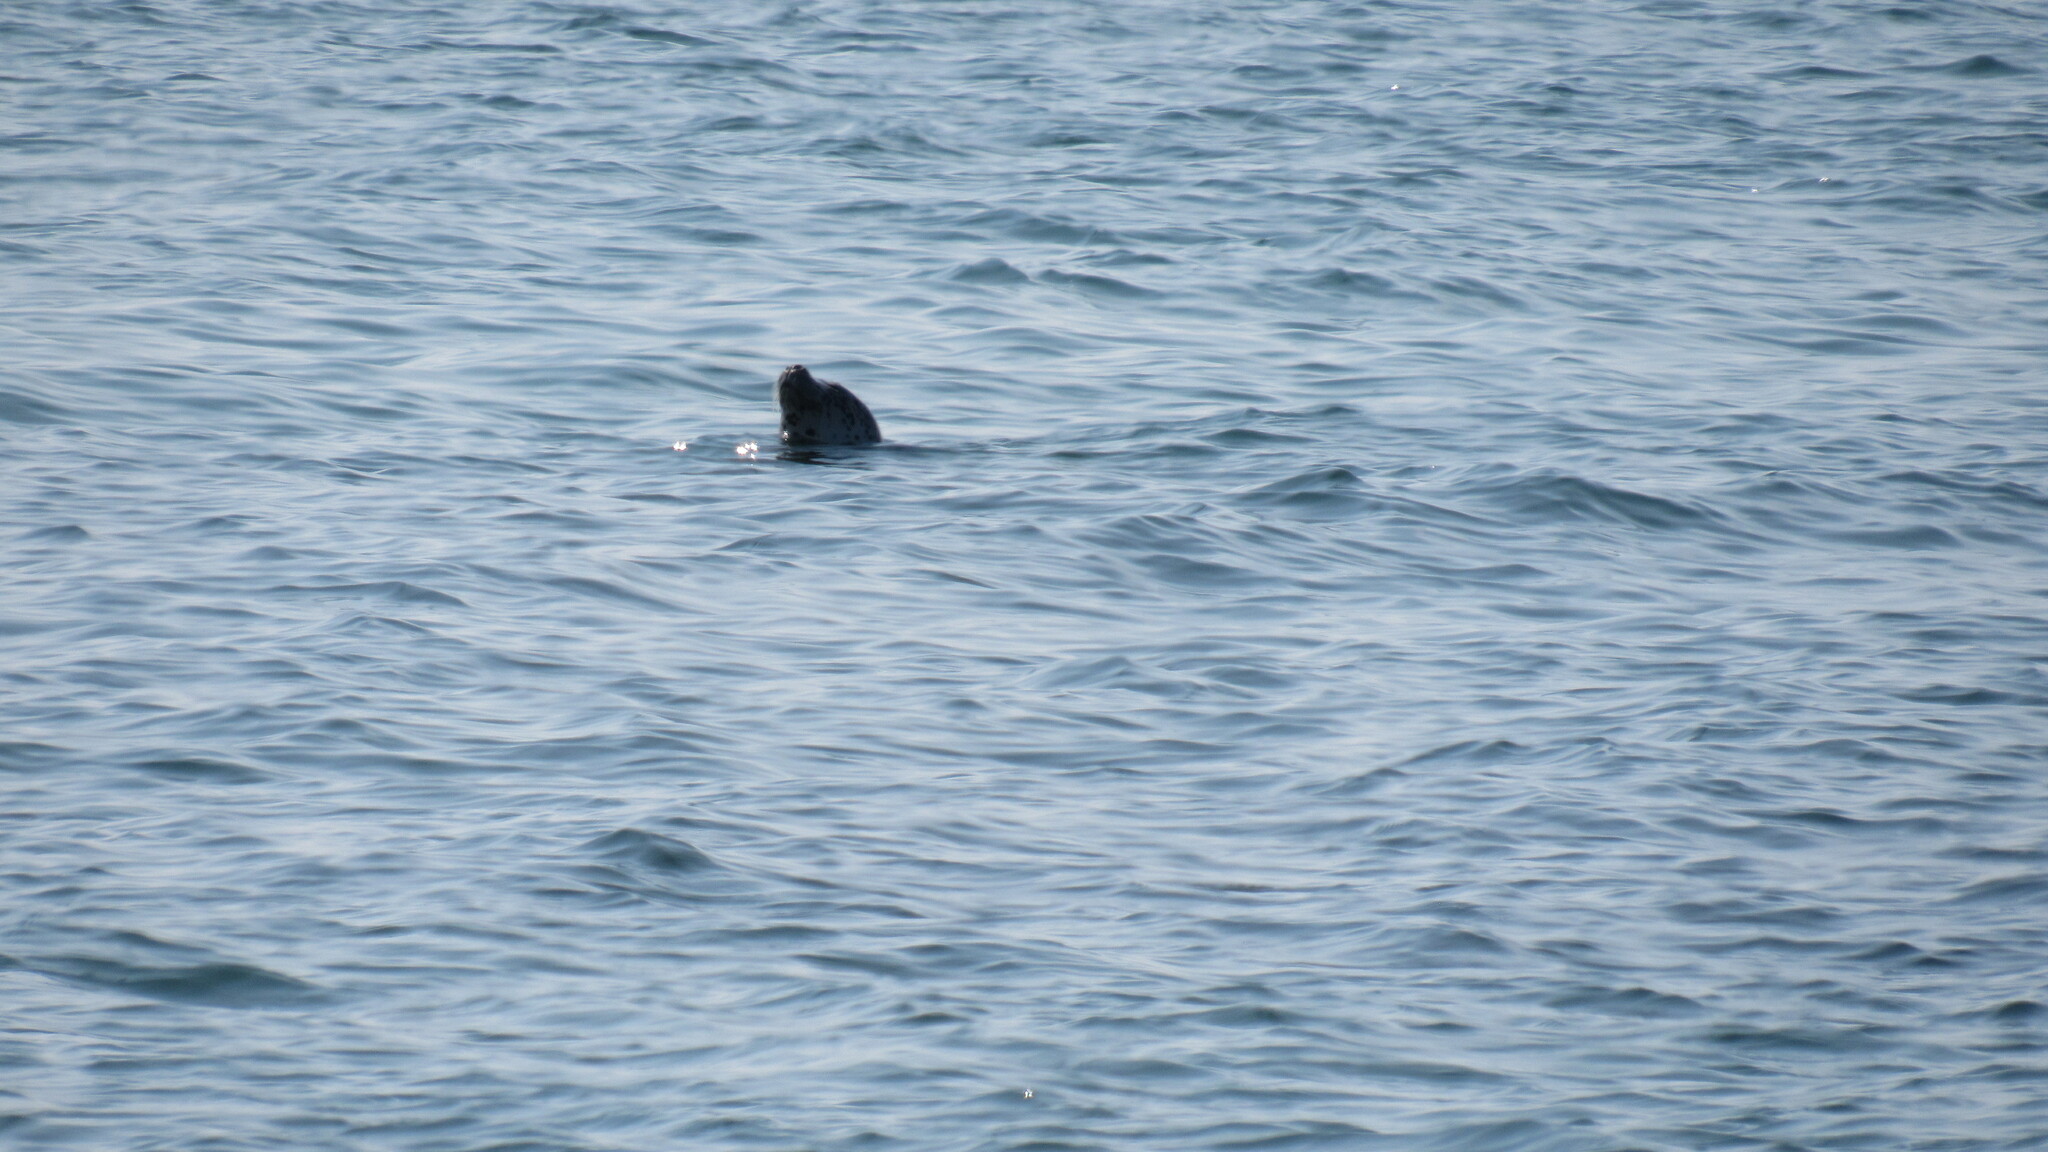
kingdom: Animalia
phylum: Chordata
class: Mammalia
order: Carnivora
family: Phocidae
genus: Phoca
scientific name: Phoca vitulina
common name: Harbor seal
